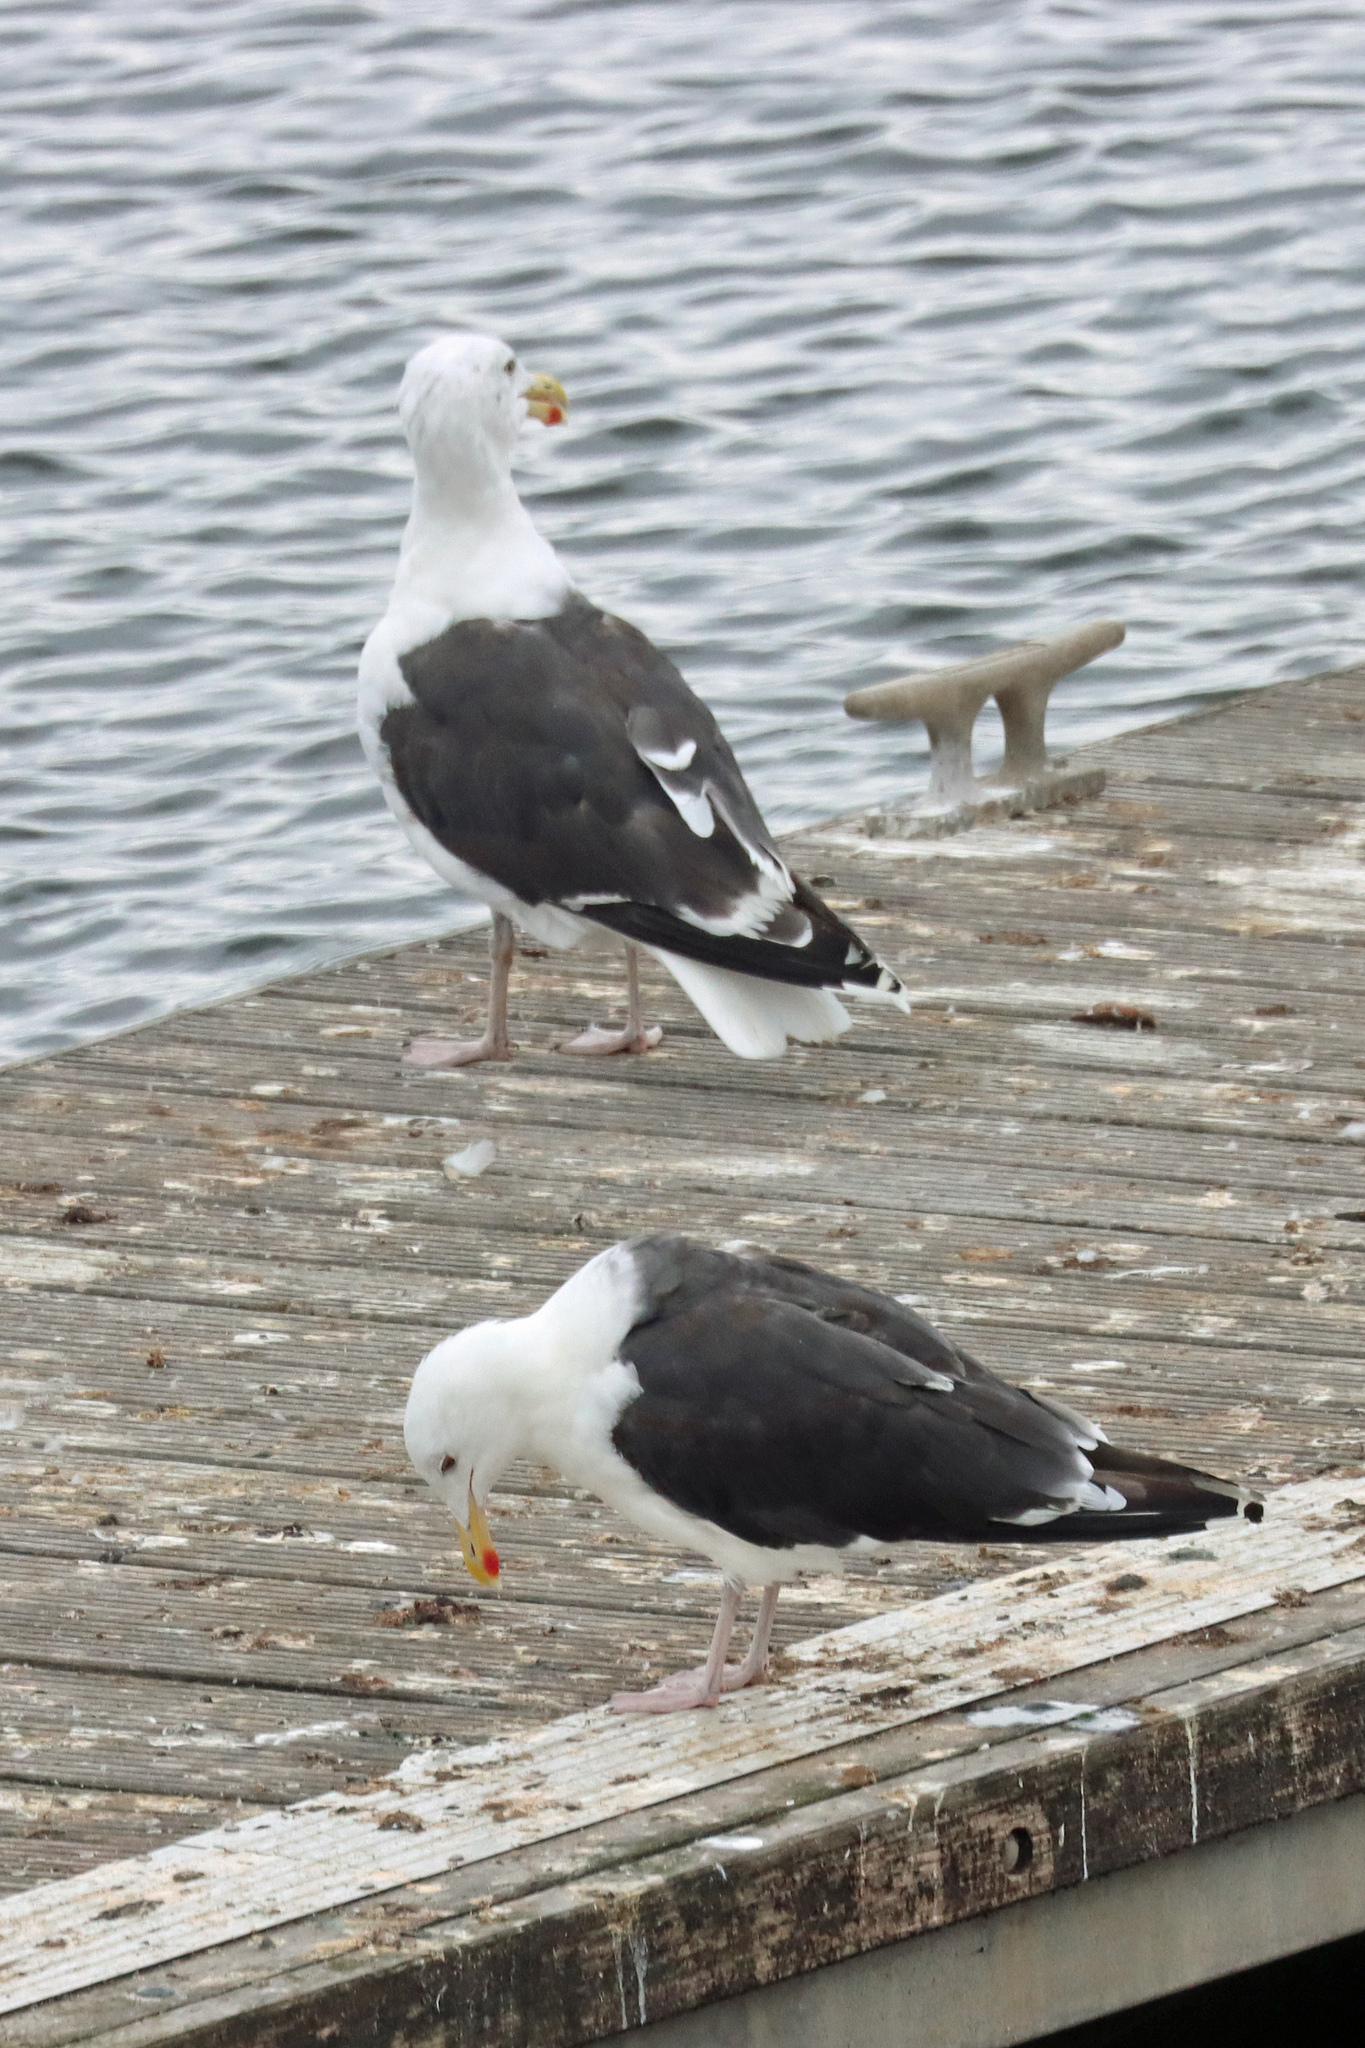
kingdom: Animalia
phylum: Chordata
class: Aves
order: Charadriiformes
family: Laridae
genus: Larus
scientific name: Larus marinus
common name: Great black-backed gull
